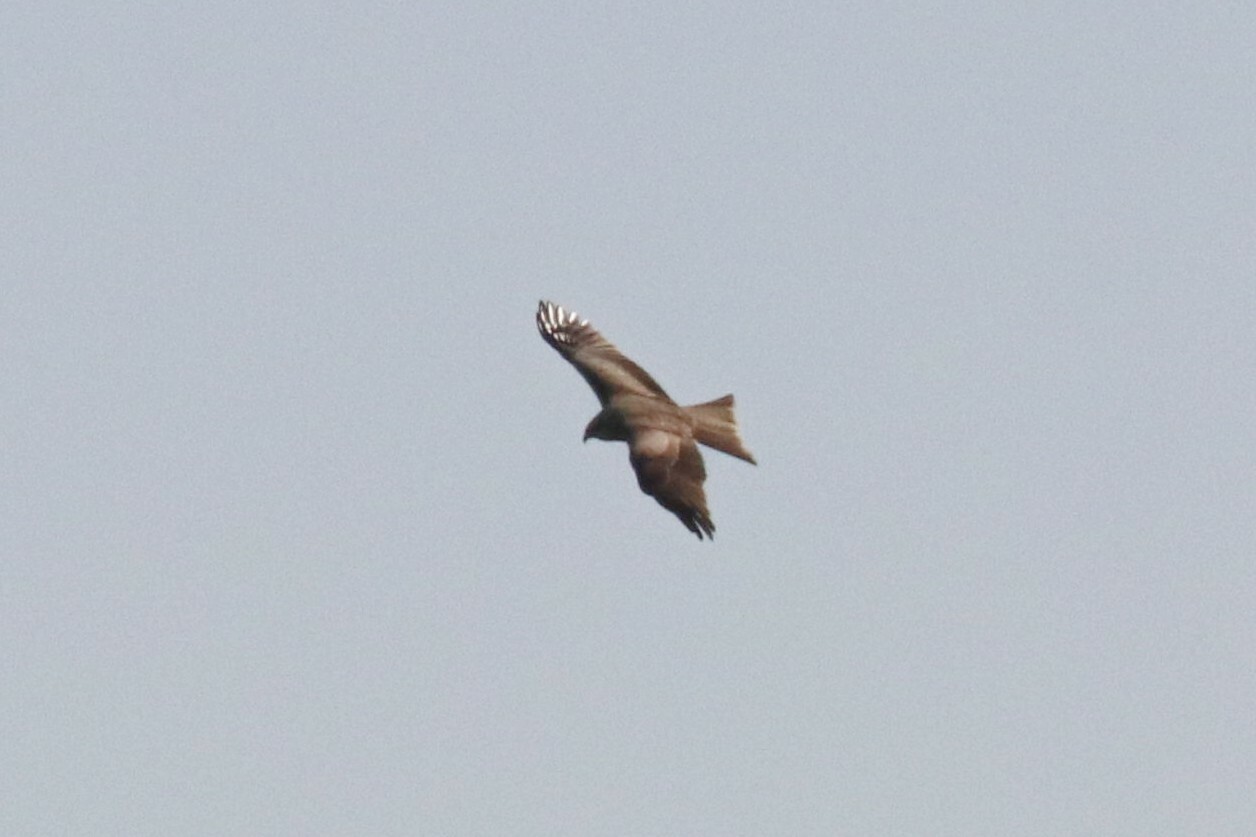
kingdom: Animalia
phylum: Chordata
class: Aves
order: Accipitriformes
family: Accipitridae
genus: Milvus
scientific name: Milvus migrans
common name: Black kite
